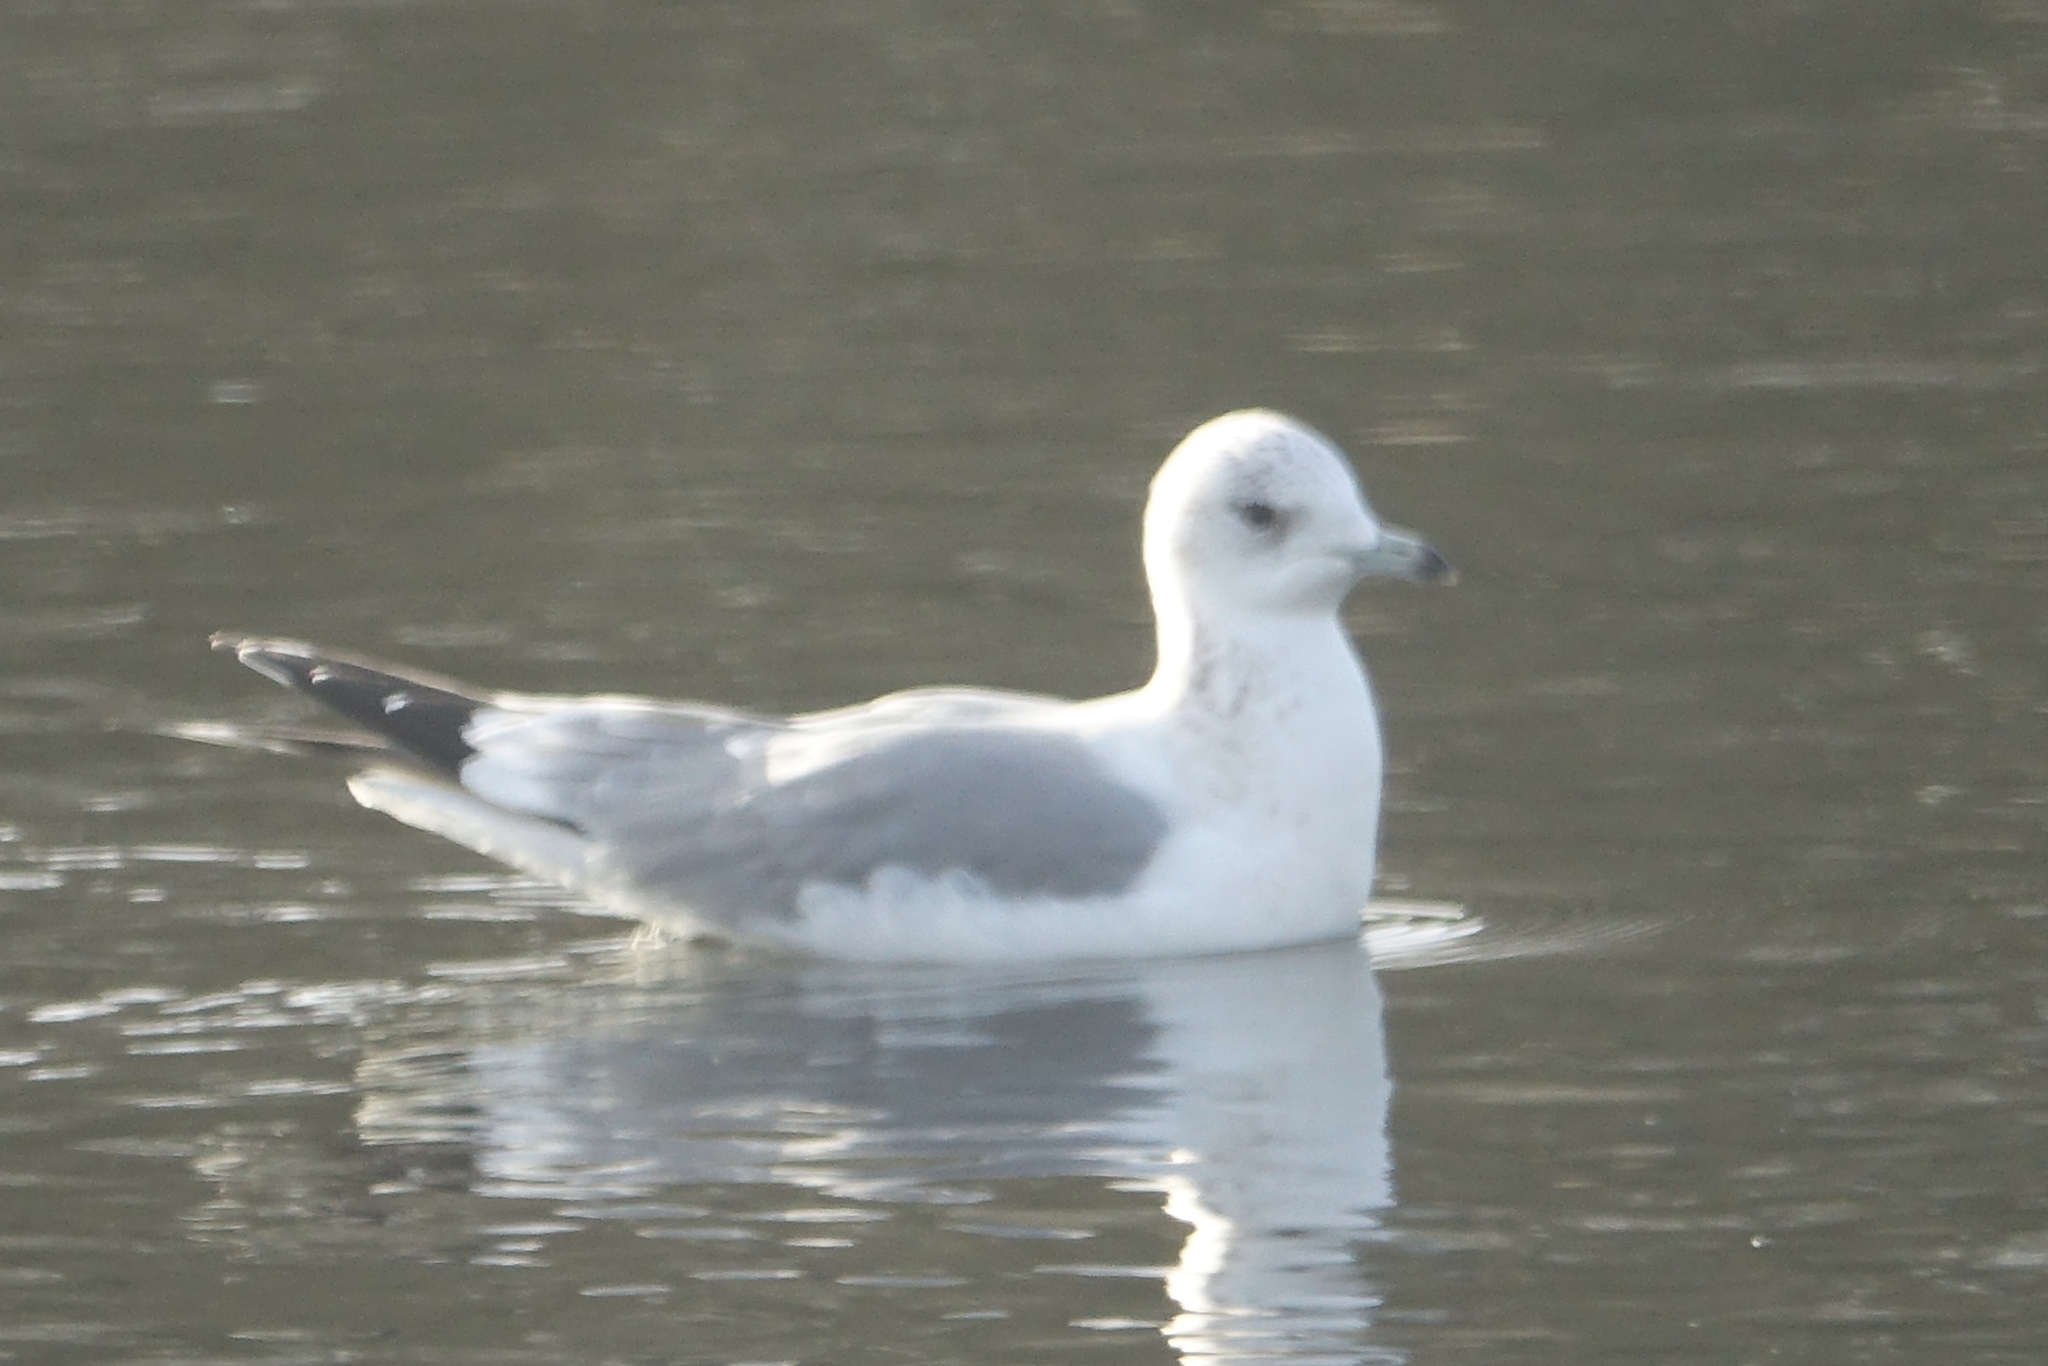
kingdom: Animalia
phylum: Chordata
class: Aves
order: Charadriiformes
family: Laridae
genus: Larus
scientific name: Larus canus
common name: Mew gull
